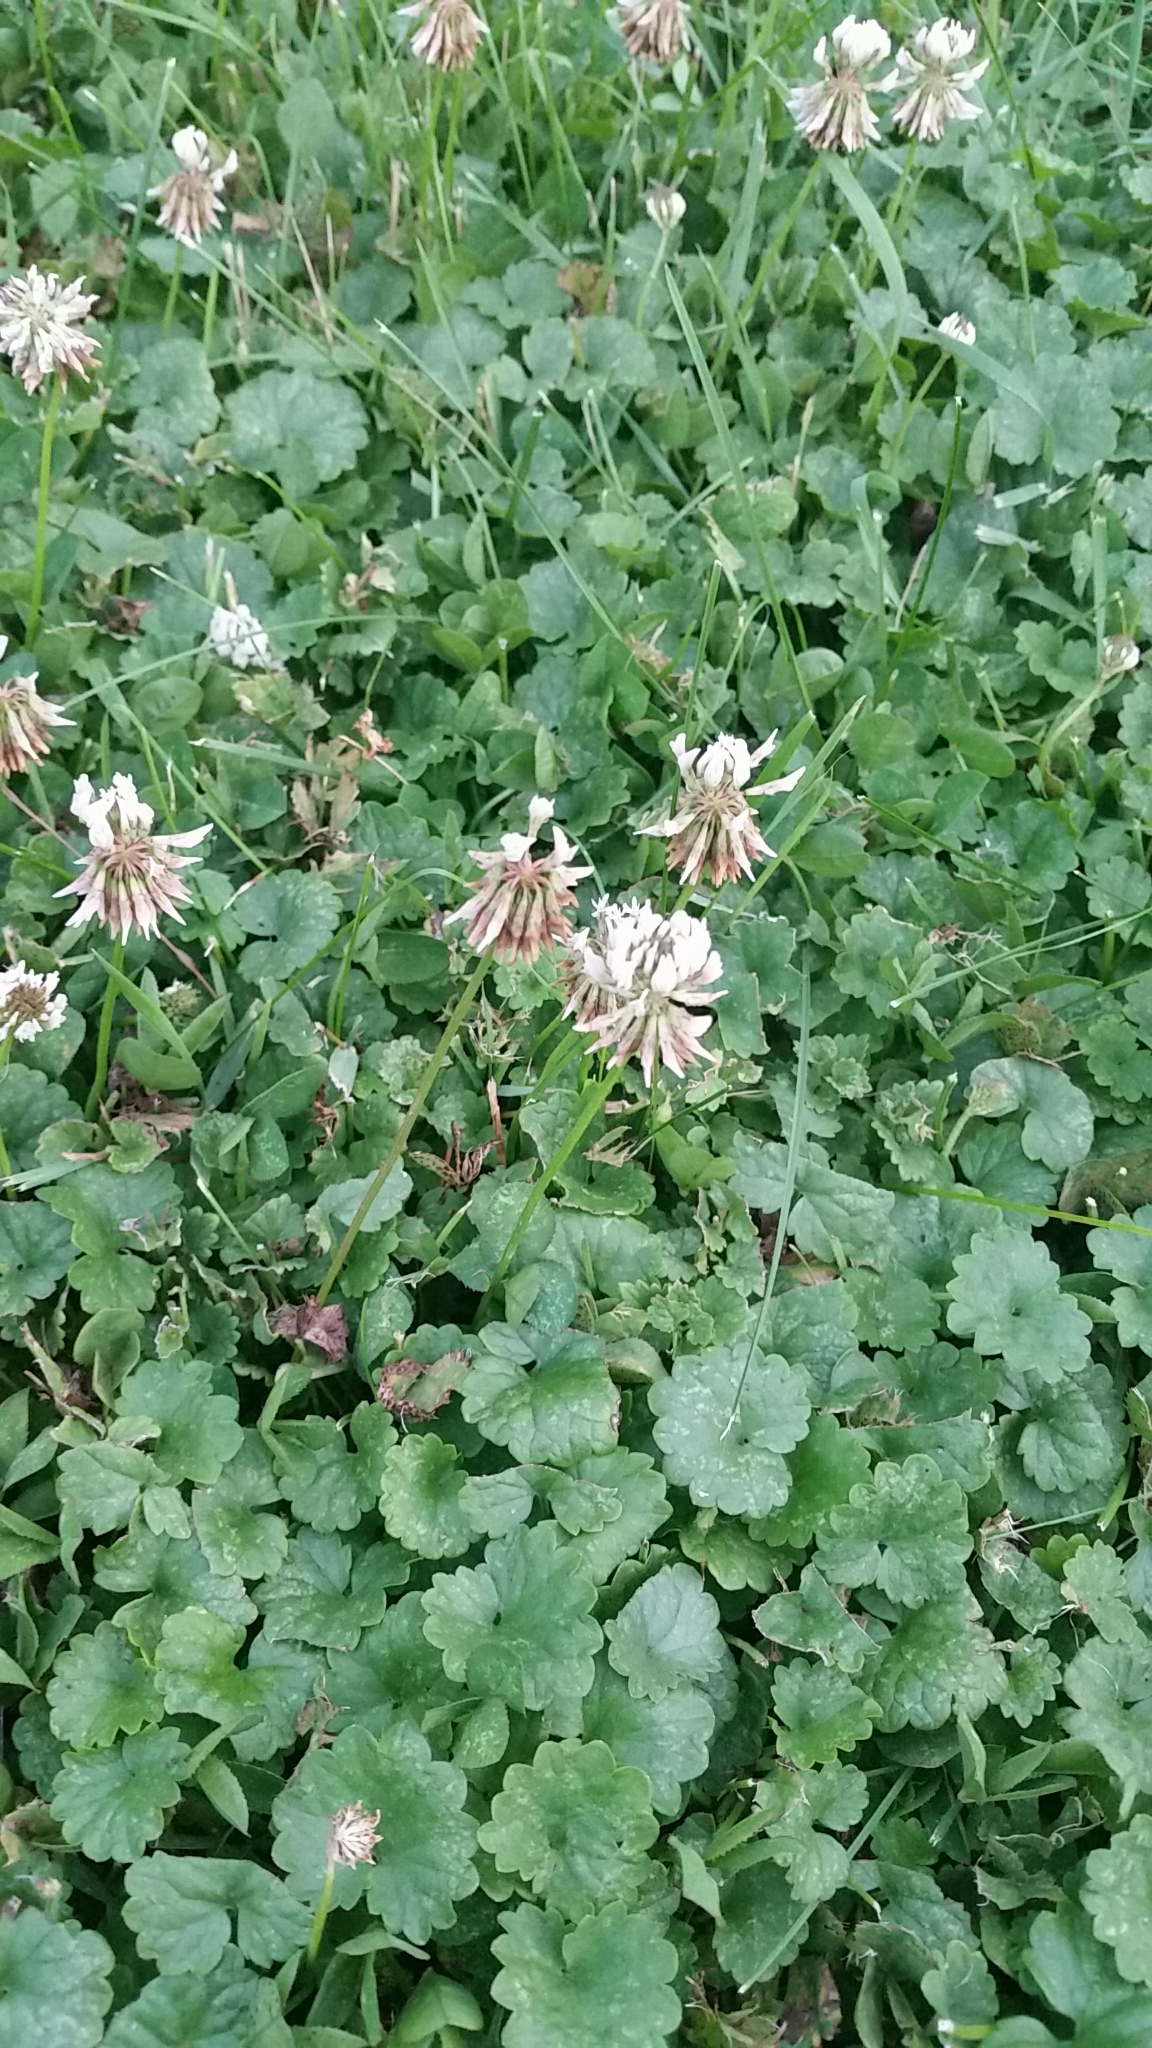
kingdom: Plantae
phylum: Tracheophyta
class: Magnoliopsida
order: Fabales
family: Fabaceae
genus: Trifolium
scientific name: Trifolium repens
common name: White clover
